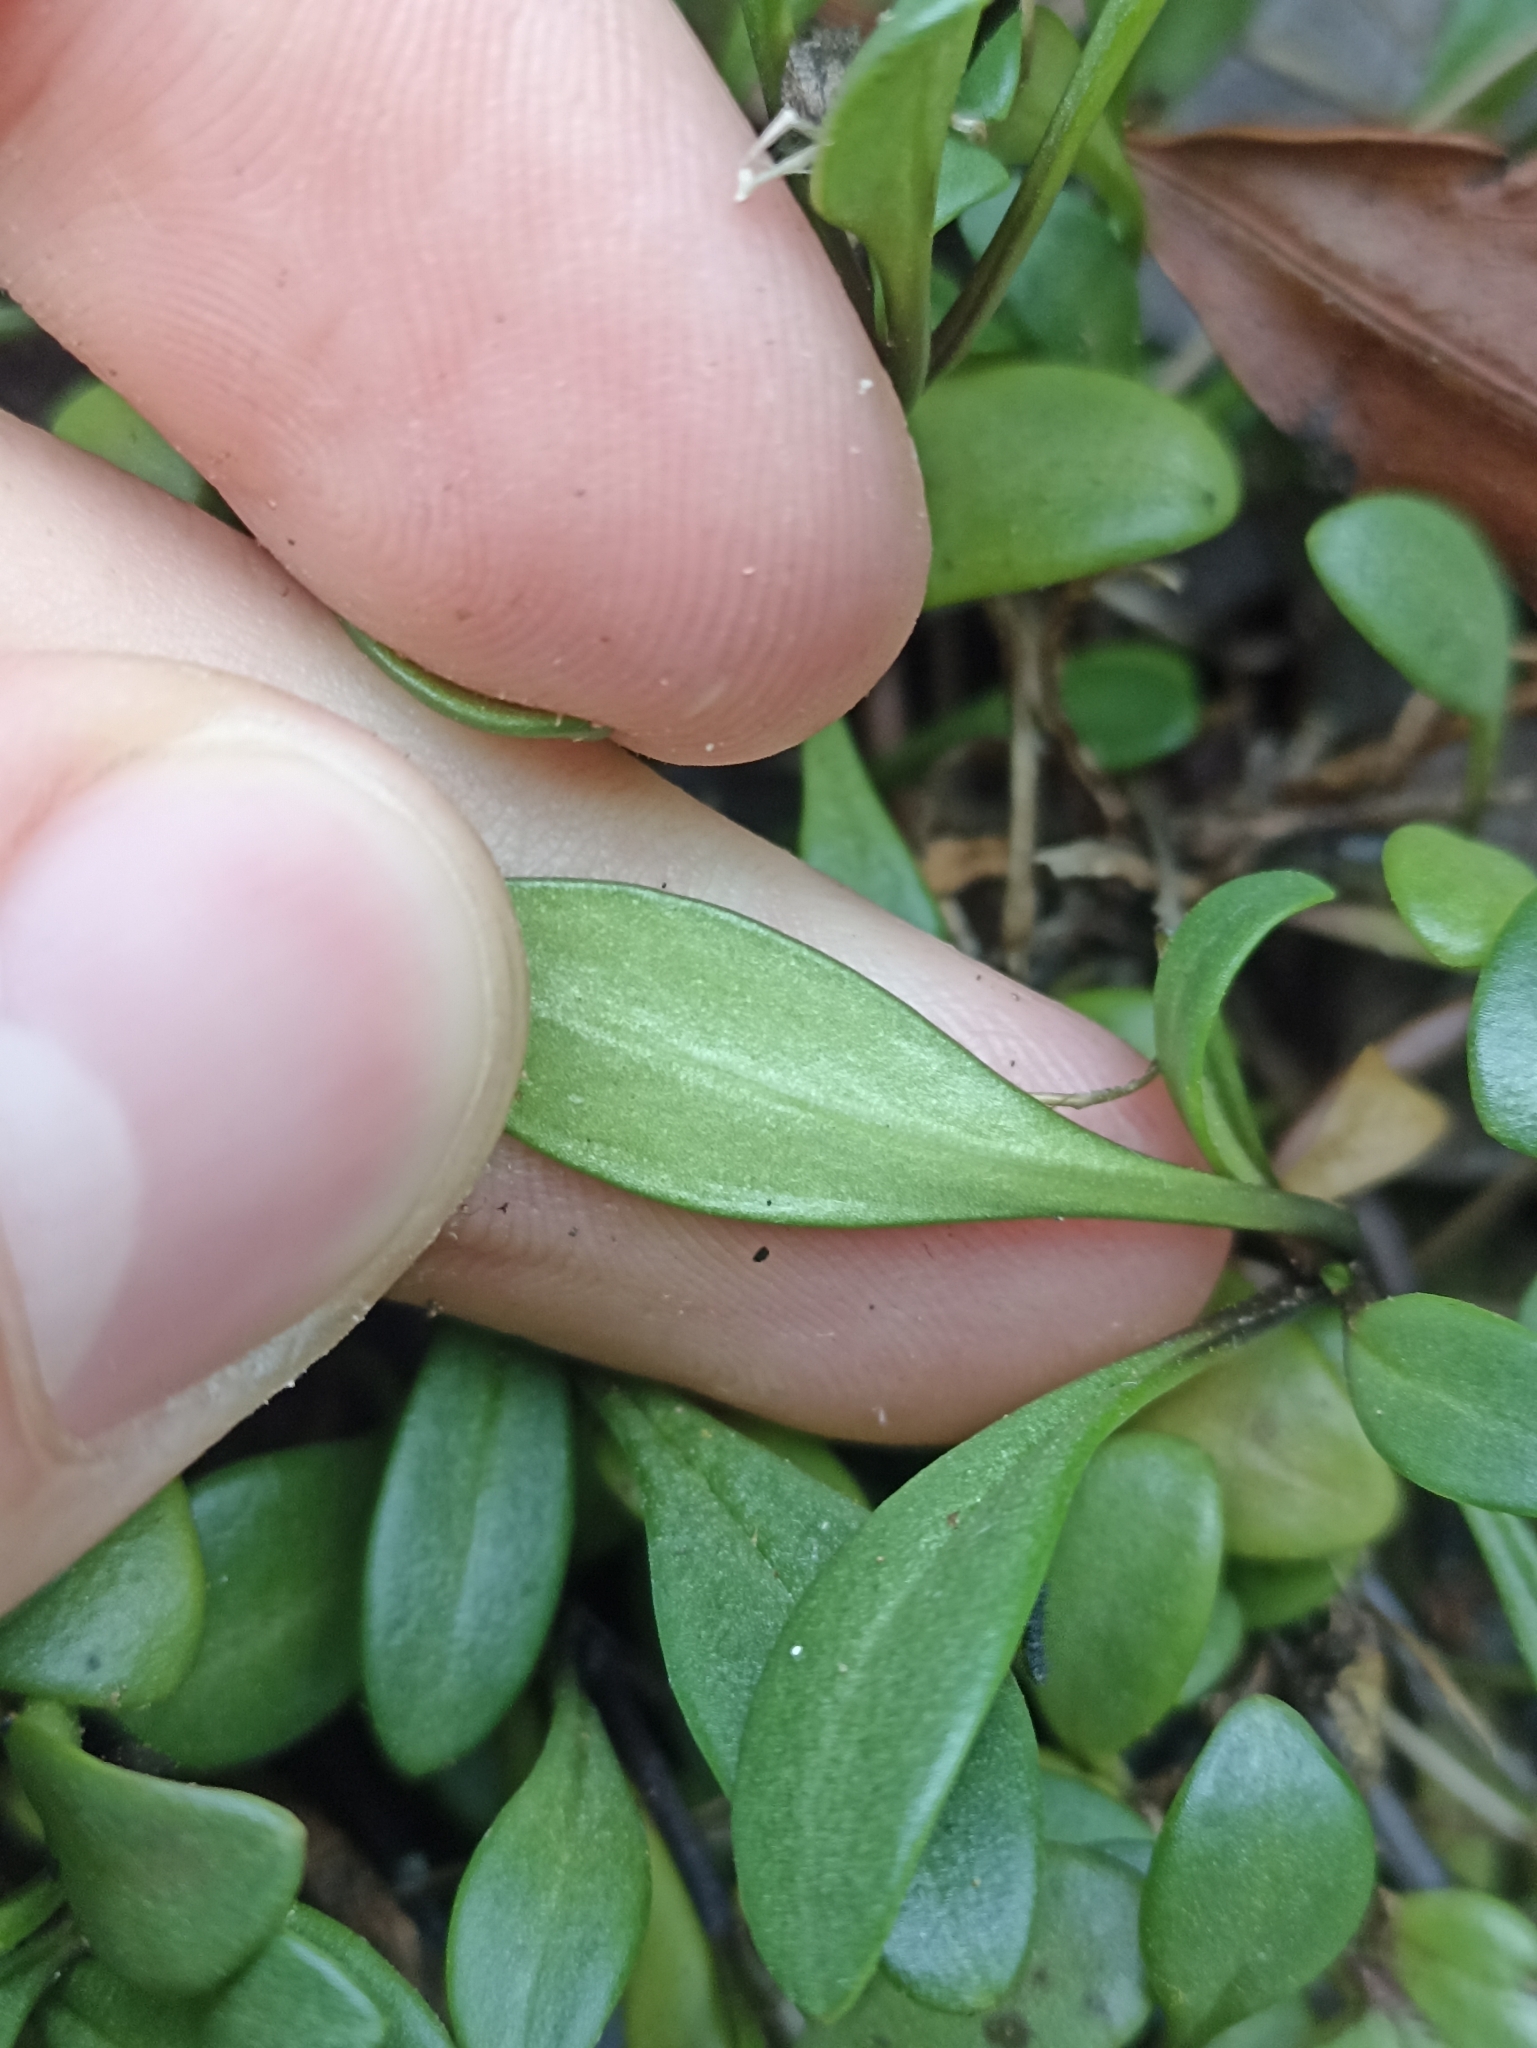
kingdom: Plantae
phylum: Tracheophyta
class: Magnoliopsida
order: Gentianales
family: Gentianaceae
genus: Gentianella
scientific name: Gentianella saxosa
